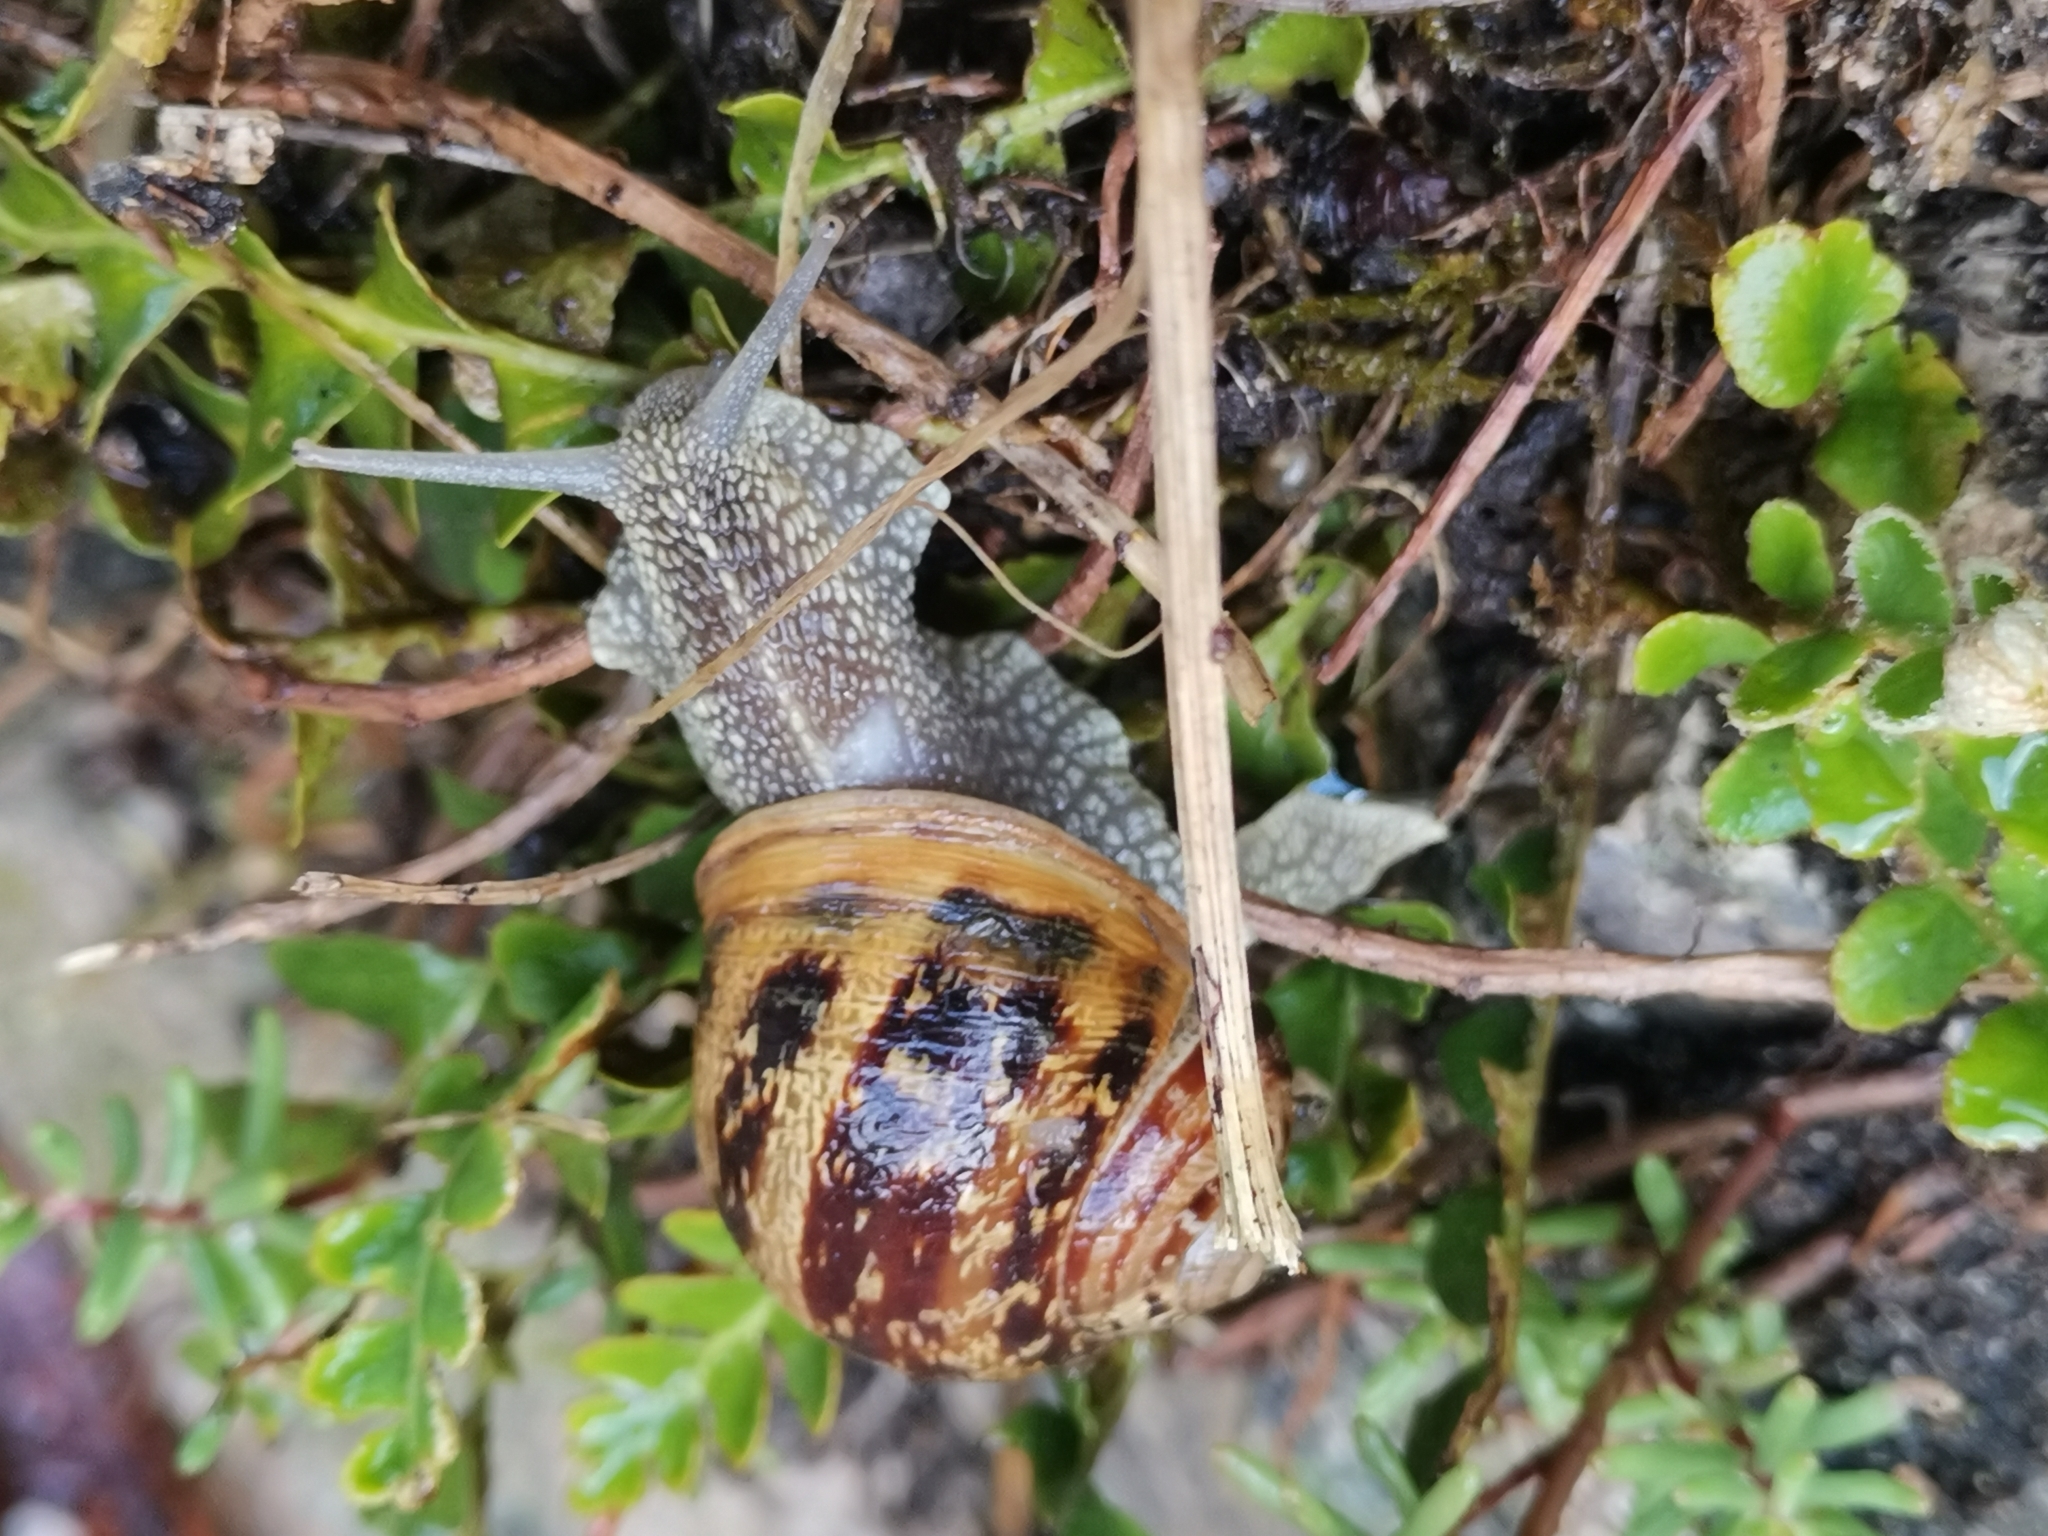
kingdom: Animalia
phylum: Mollusca
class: Gastropoda
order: Stylommatophora
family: Helicidae
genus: Cornu
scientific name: Cornu aspersum
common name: Brown garden snail
